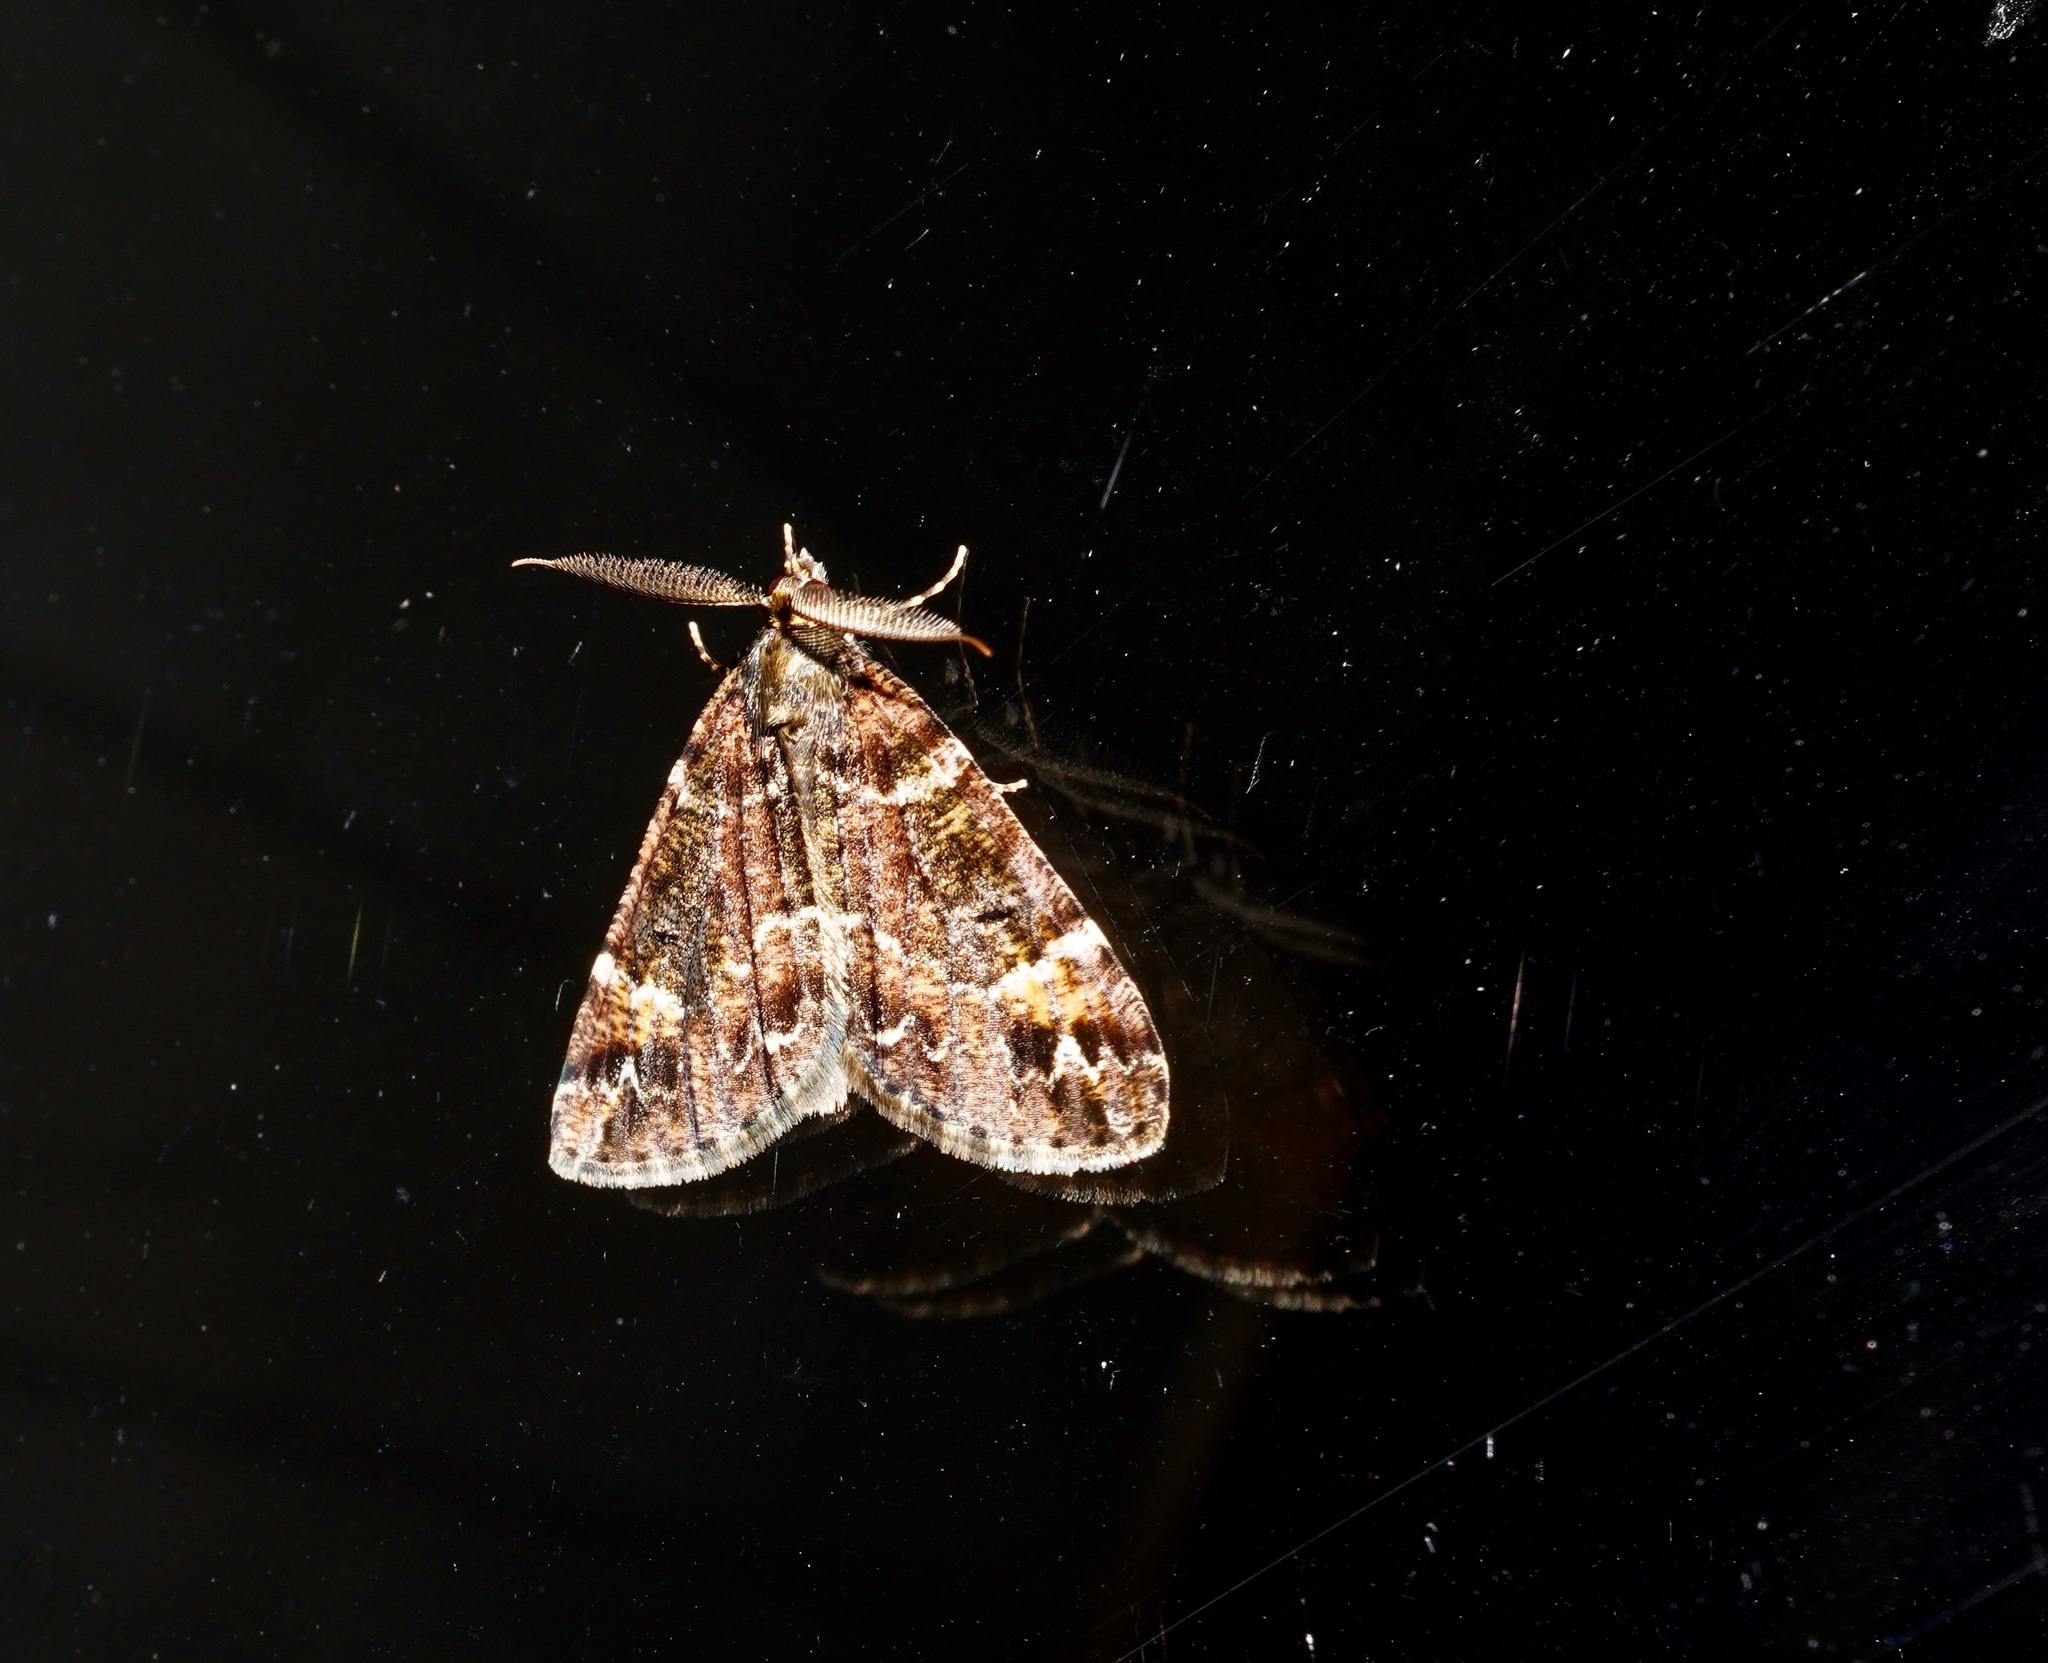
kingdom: Animalia
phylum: Arthropoda
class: Insecta
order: Lepidoptera
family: Geometridae
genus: Pseudocoremia
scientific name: Pseudocoremia productata
